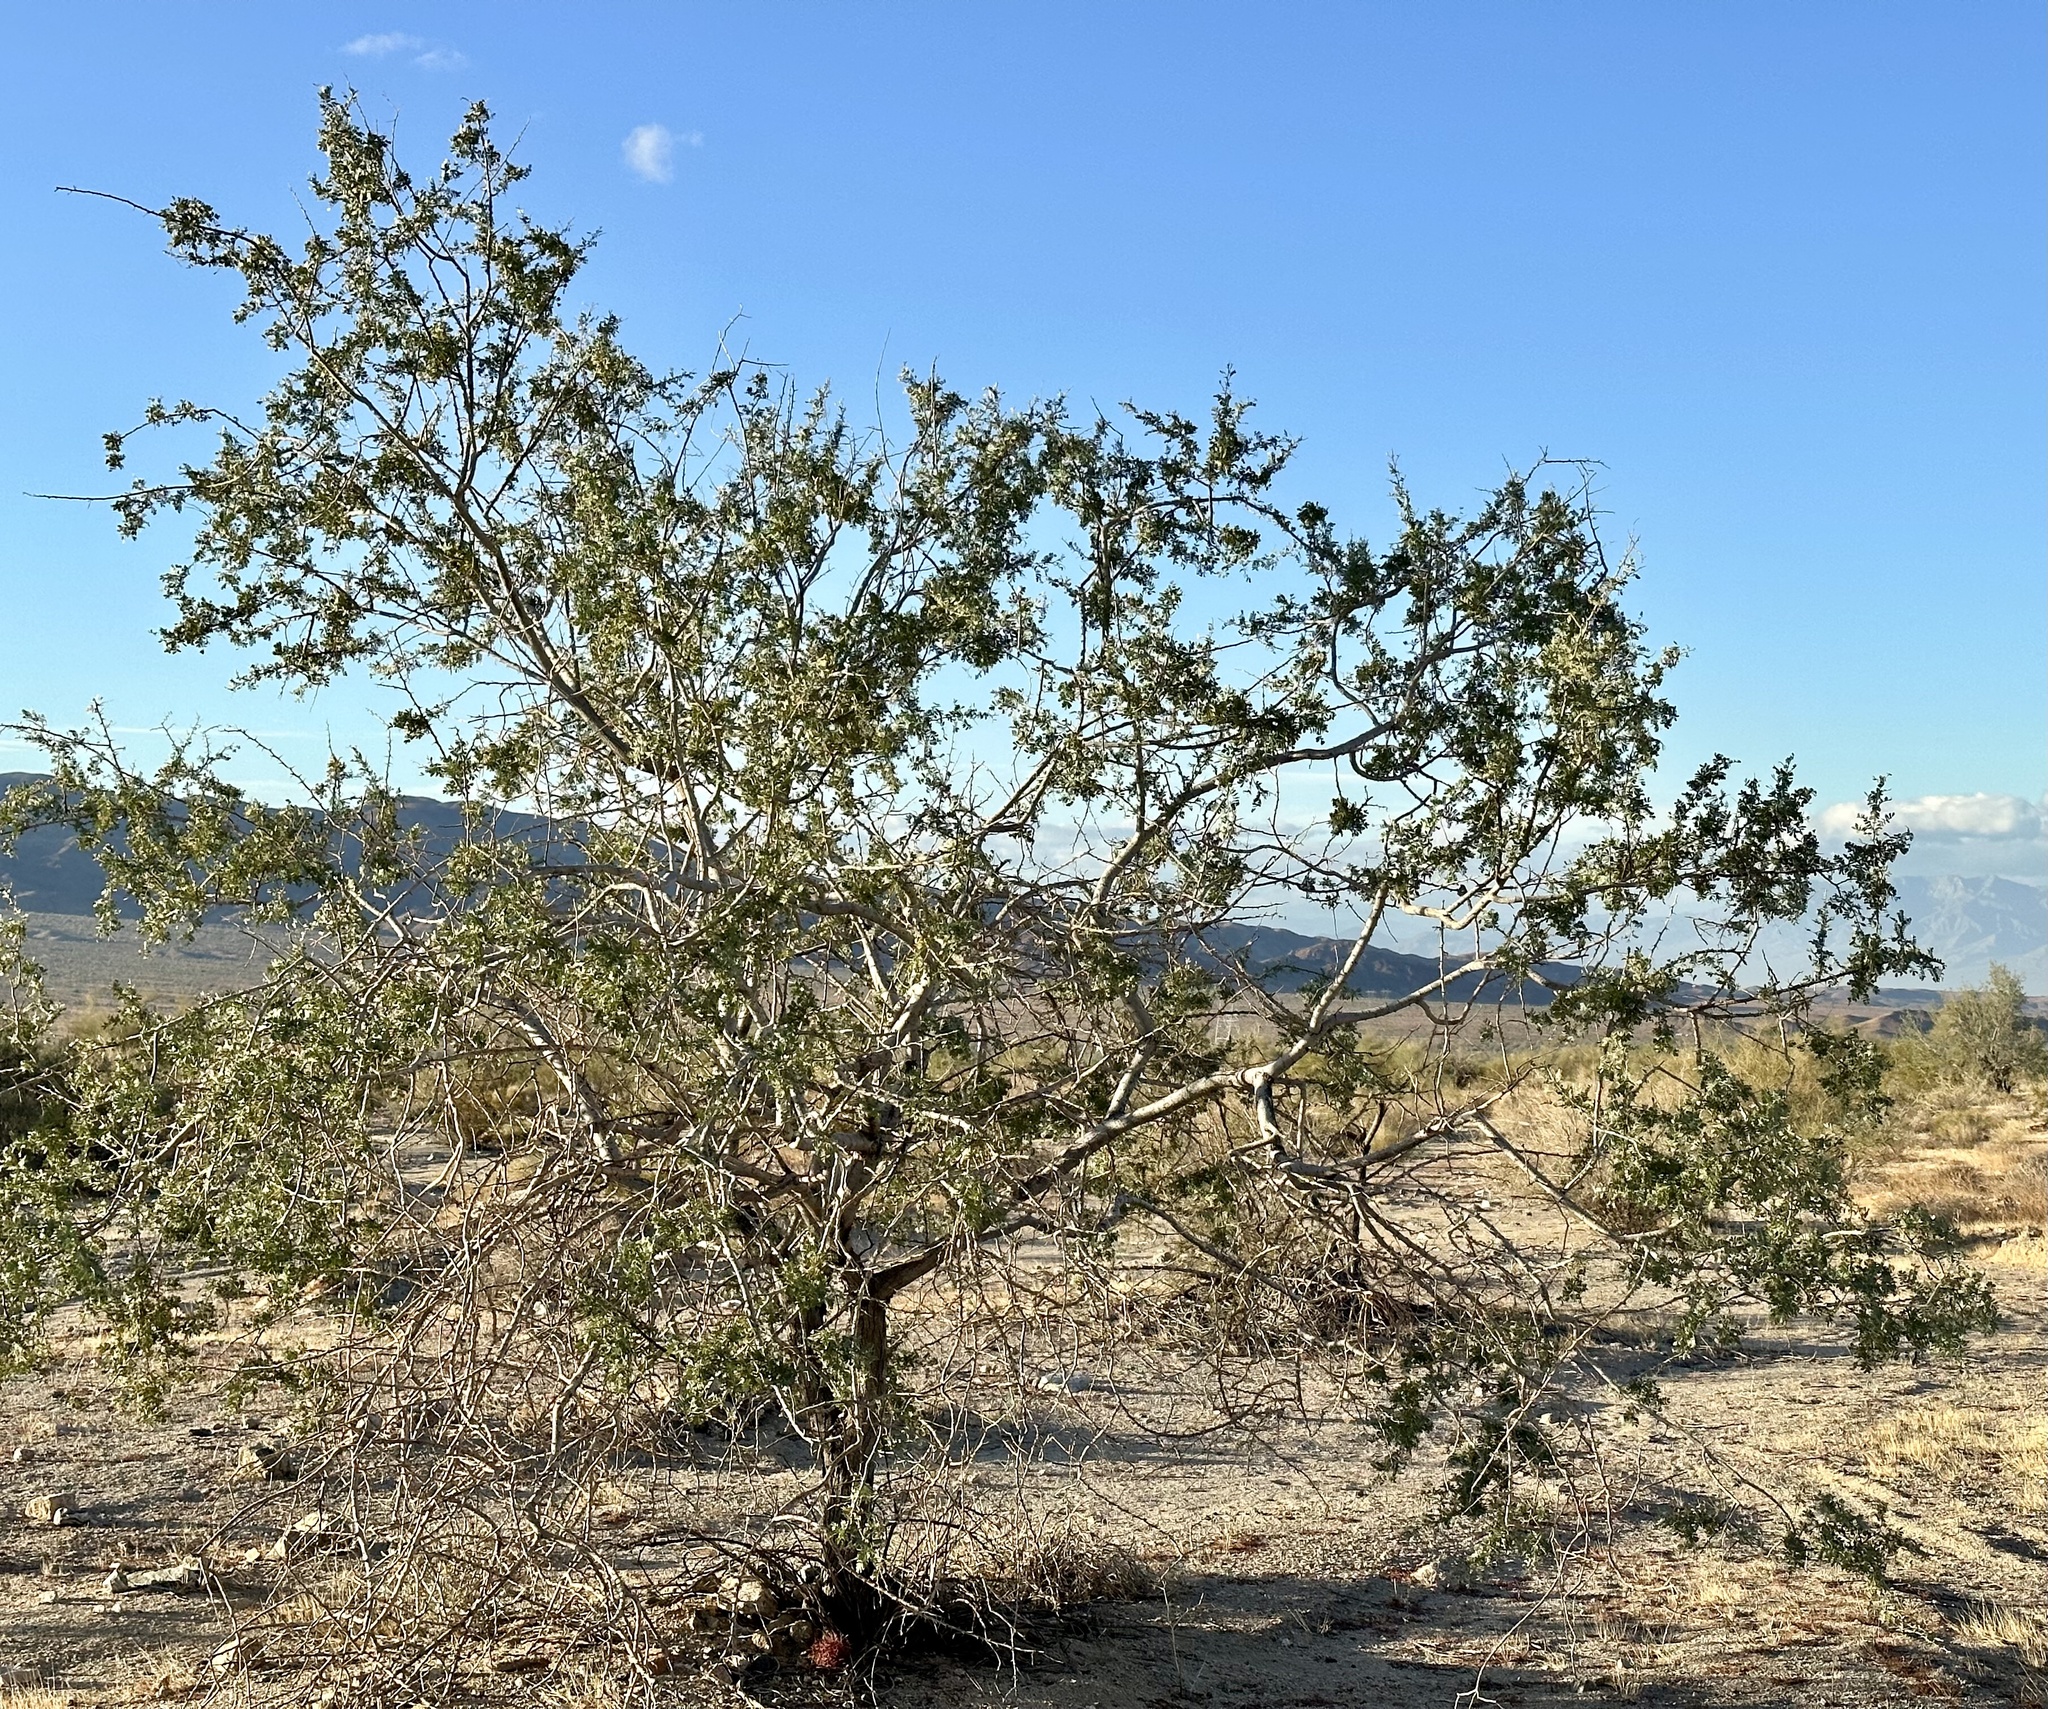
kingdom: Plantae
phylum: Tracheophyta
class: Magnoliopsida
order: Fabales
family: Fabaceae
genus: Olneya
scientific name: Olneya tesota
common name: Desert ironwood
